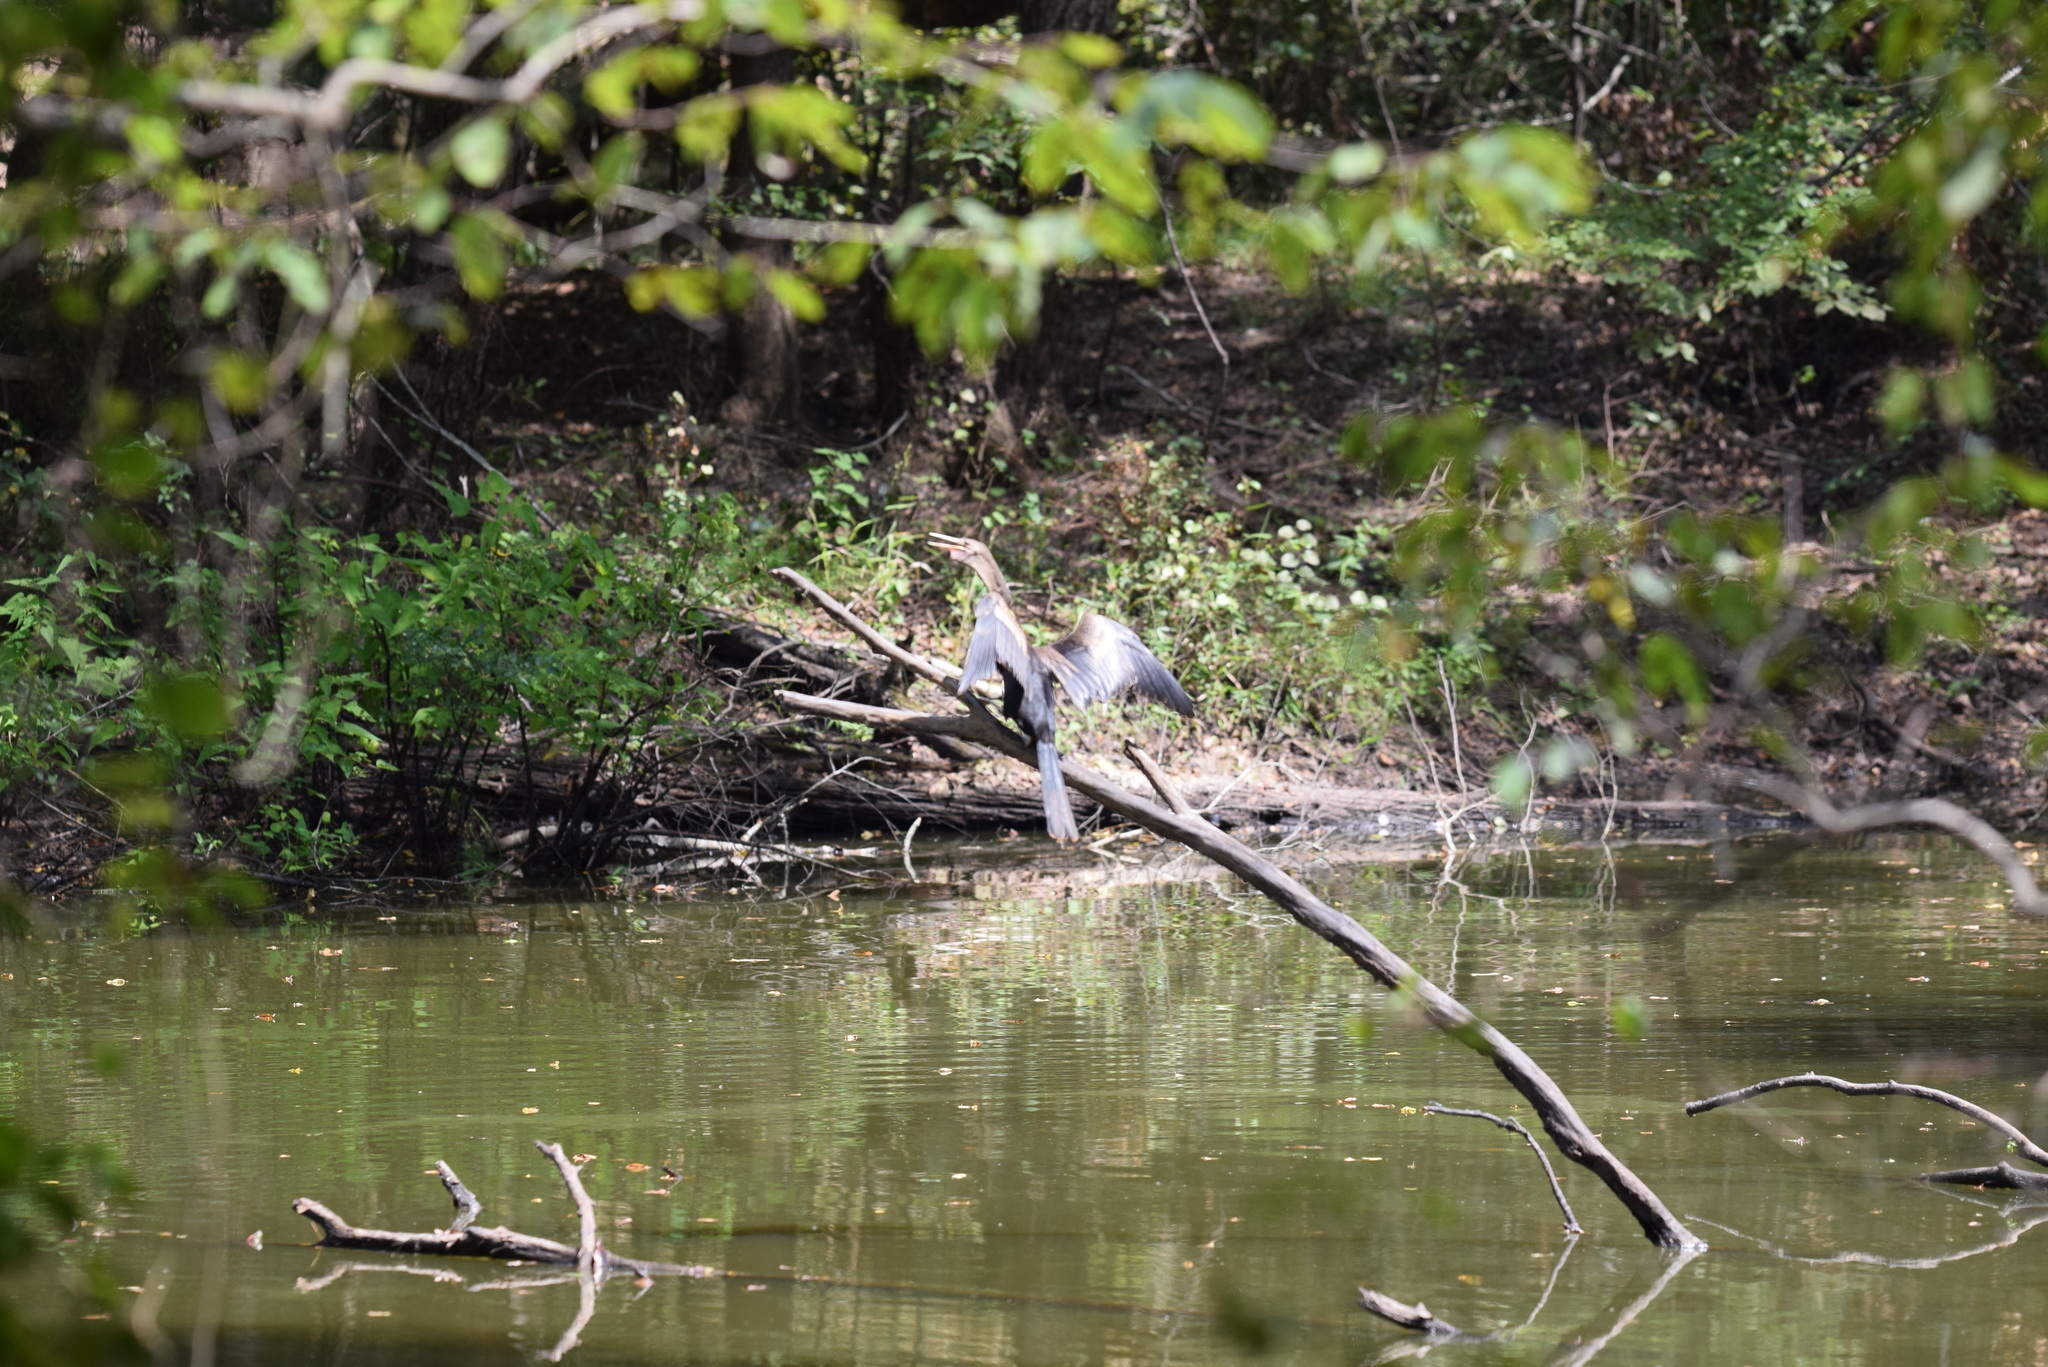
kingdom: Animalia
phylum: Chordata
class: Aves
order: Suliformes
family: Anhingidae
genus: Anhinga
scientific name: Anhinga anhinga
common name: Anhinga
